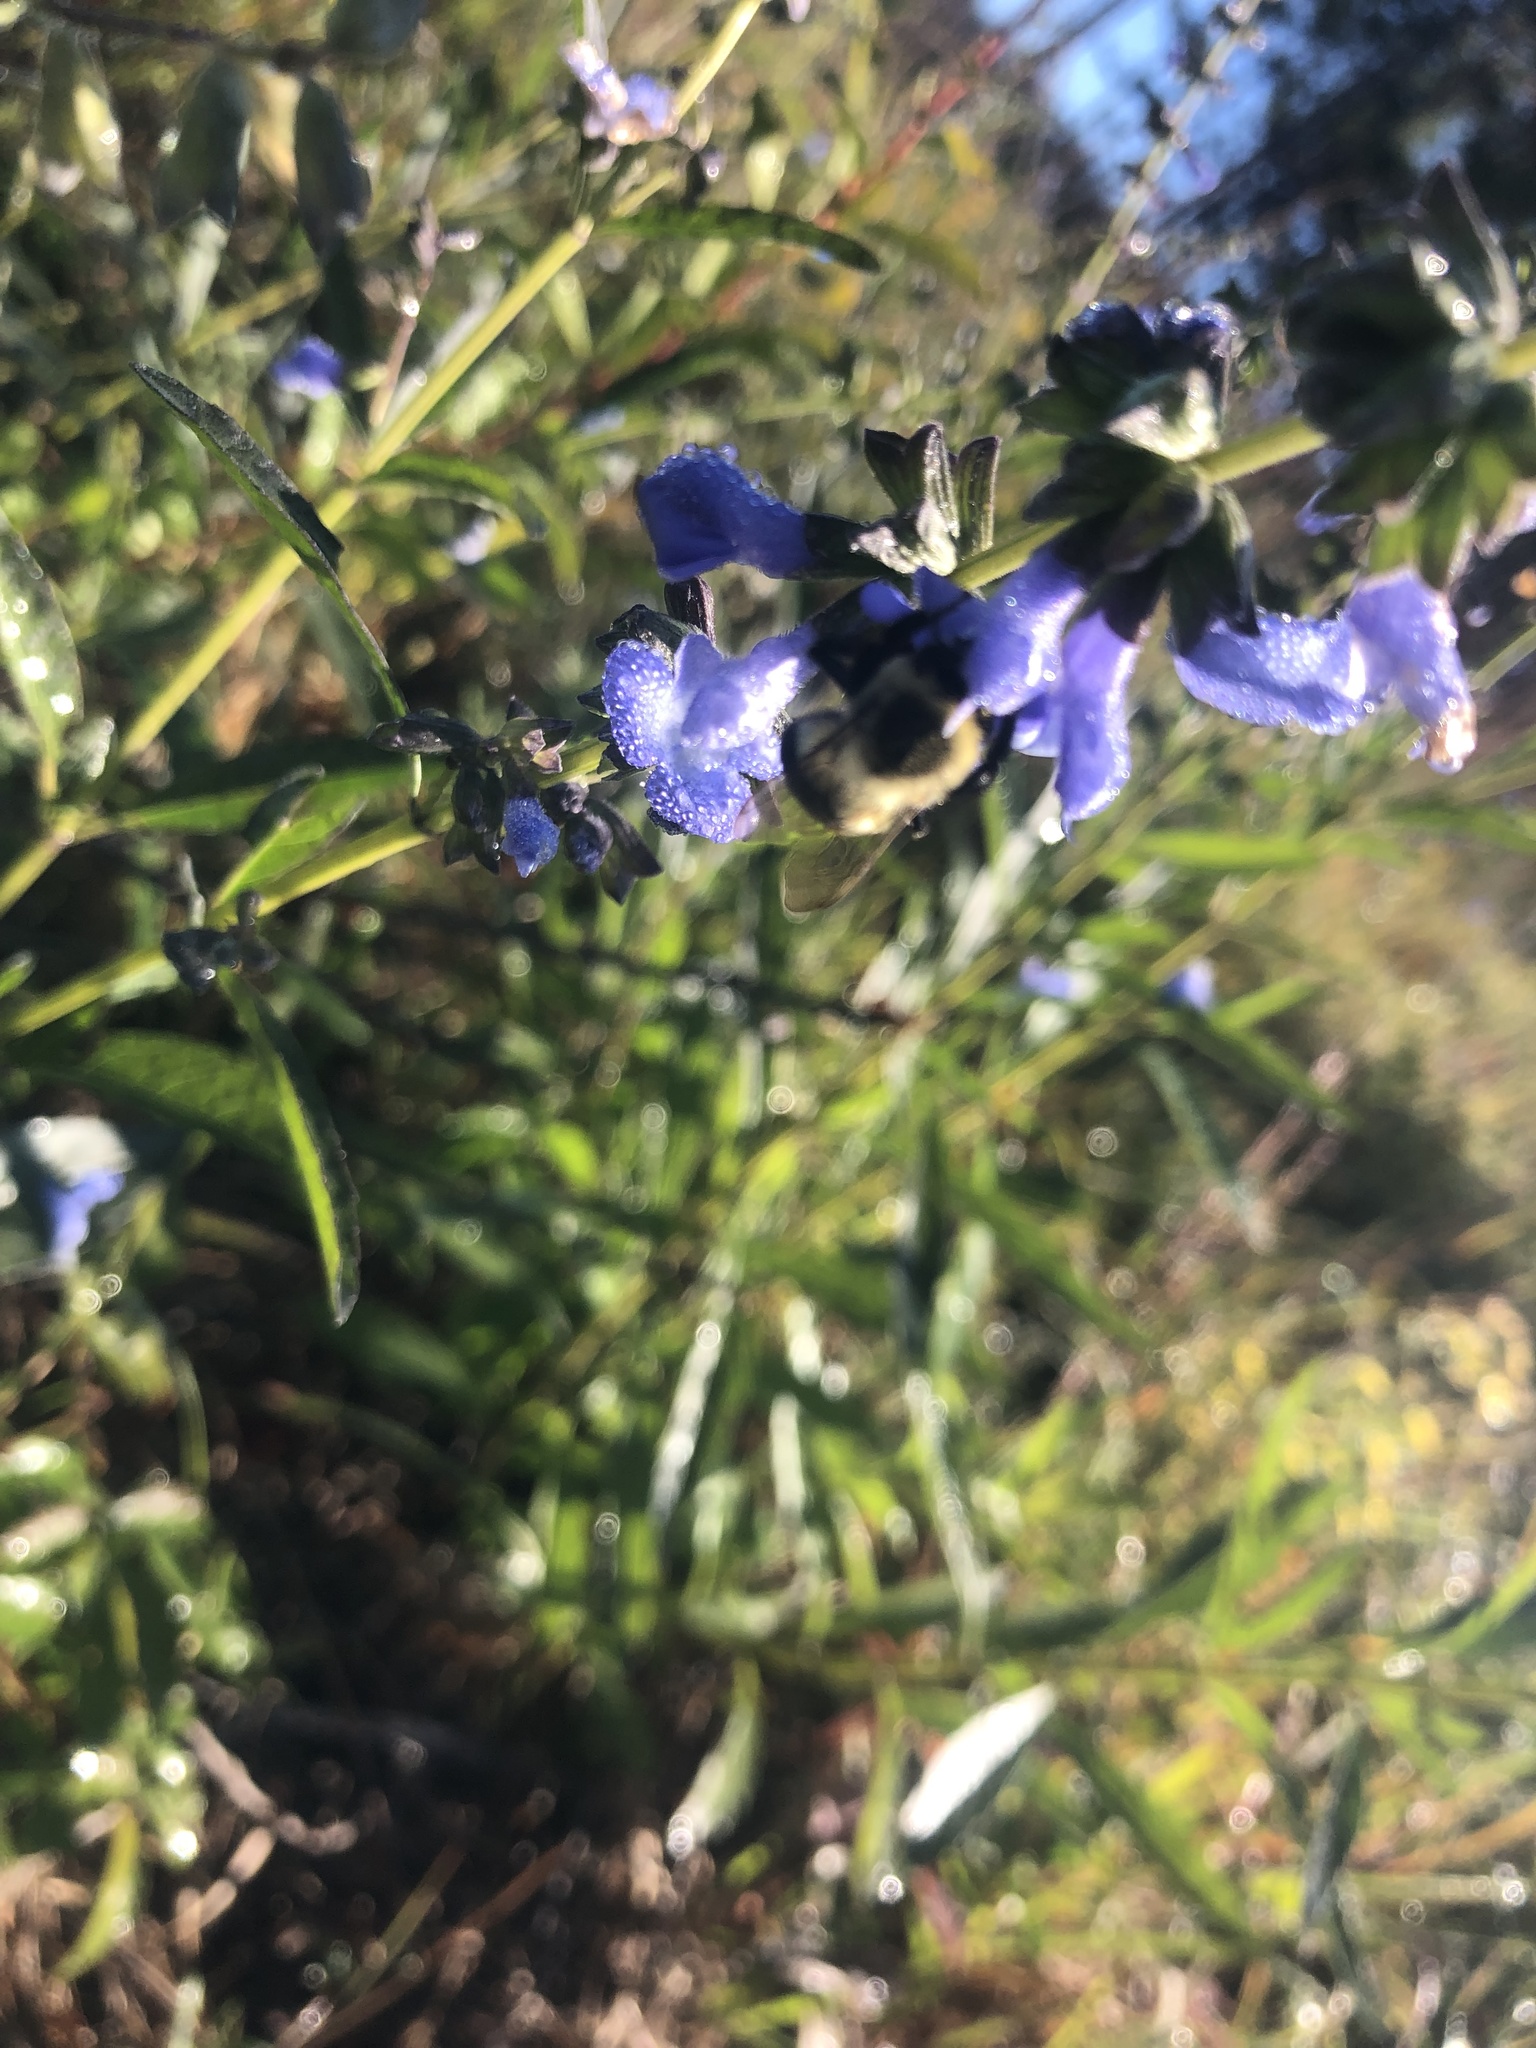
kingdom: Animalia
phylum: Arthropoda
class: Insecta
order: Hymenoptera
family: Apidae
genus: Bombus
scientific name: Bombus impatiens
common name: Common eastern bumble bee
